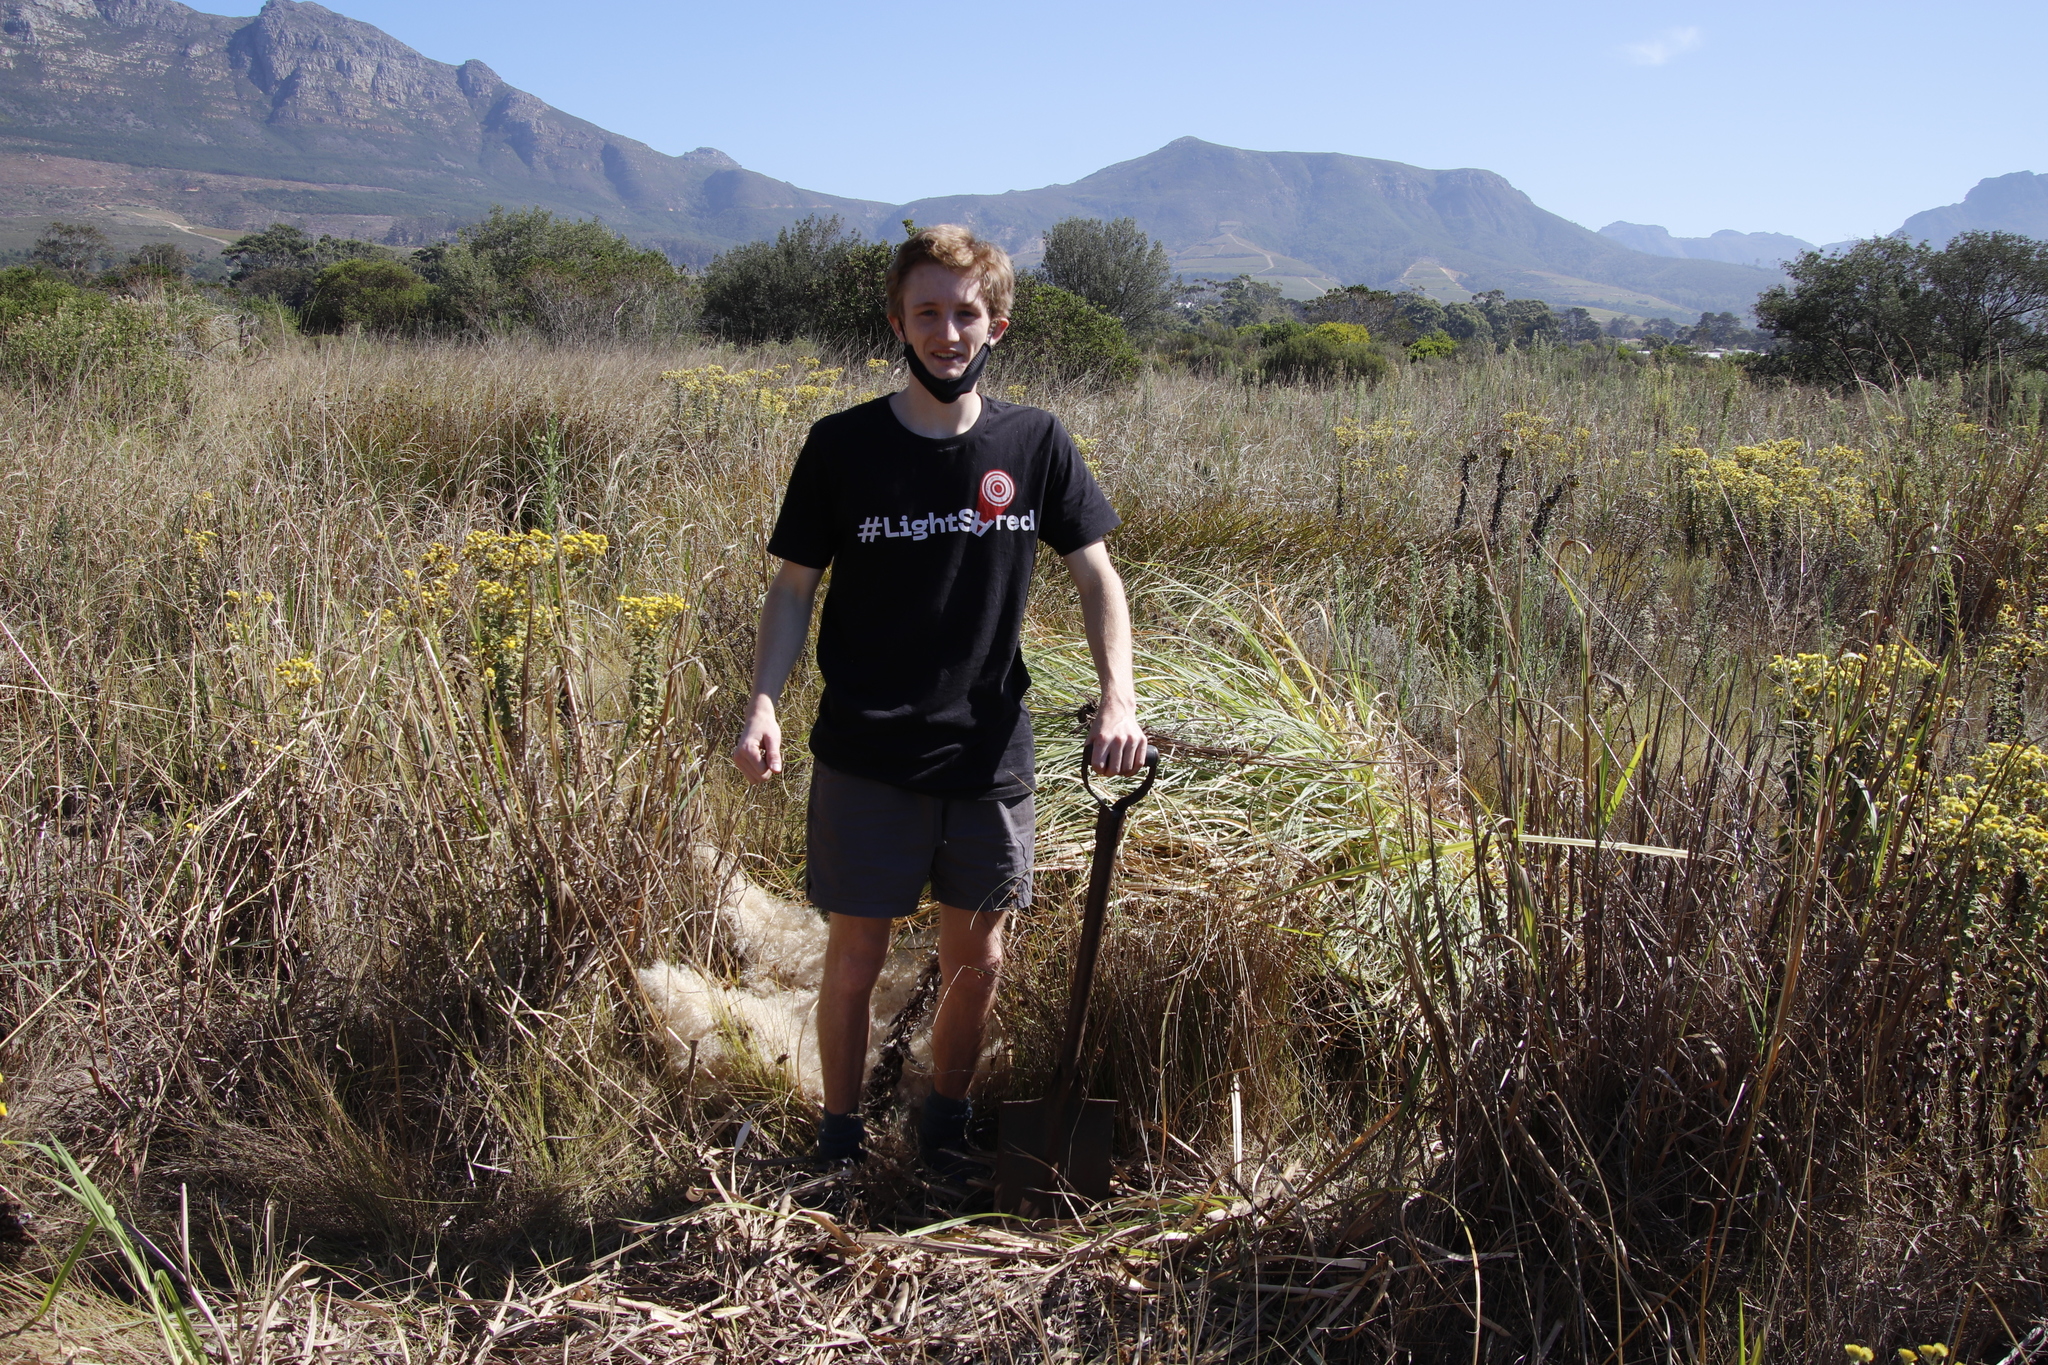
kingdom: Plantae
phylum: Tracheophyta
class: Liliopsida
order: Poales
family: Poaceae
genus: Cortaderia
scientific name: Cortaderia selloana
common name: Uruguayan pampas grass
